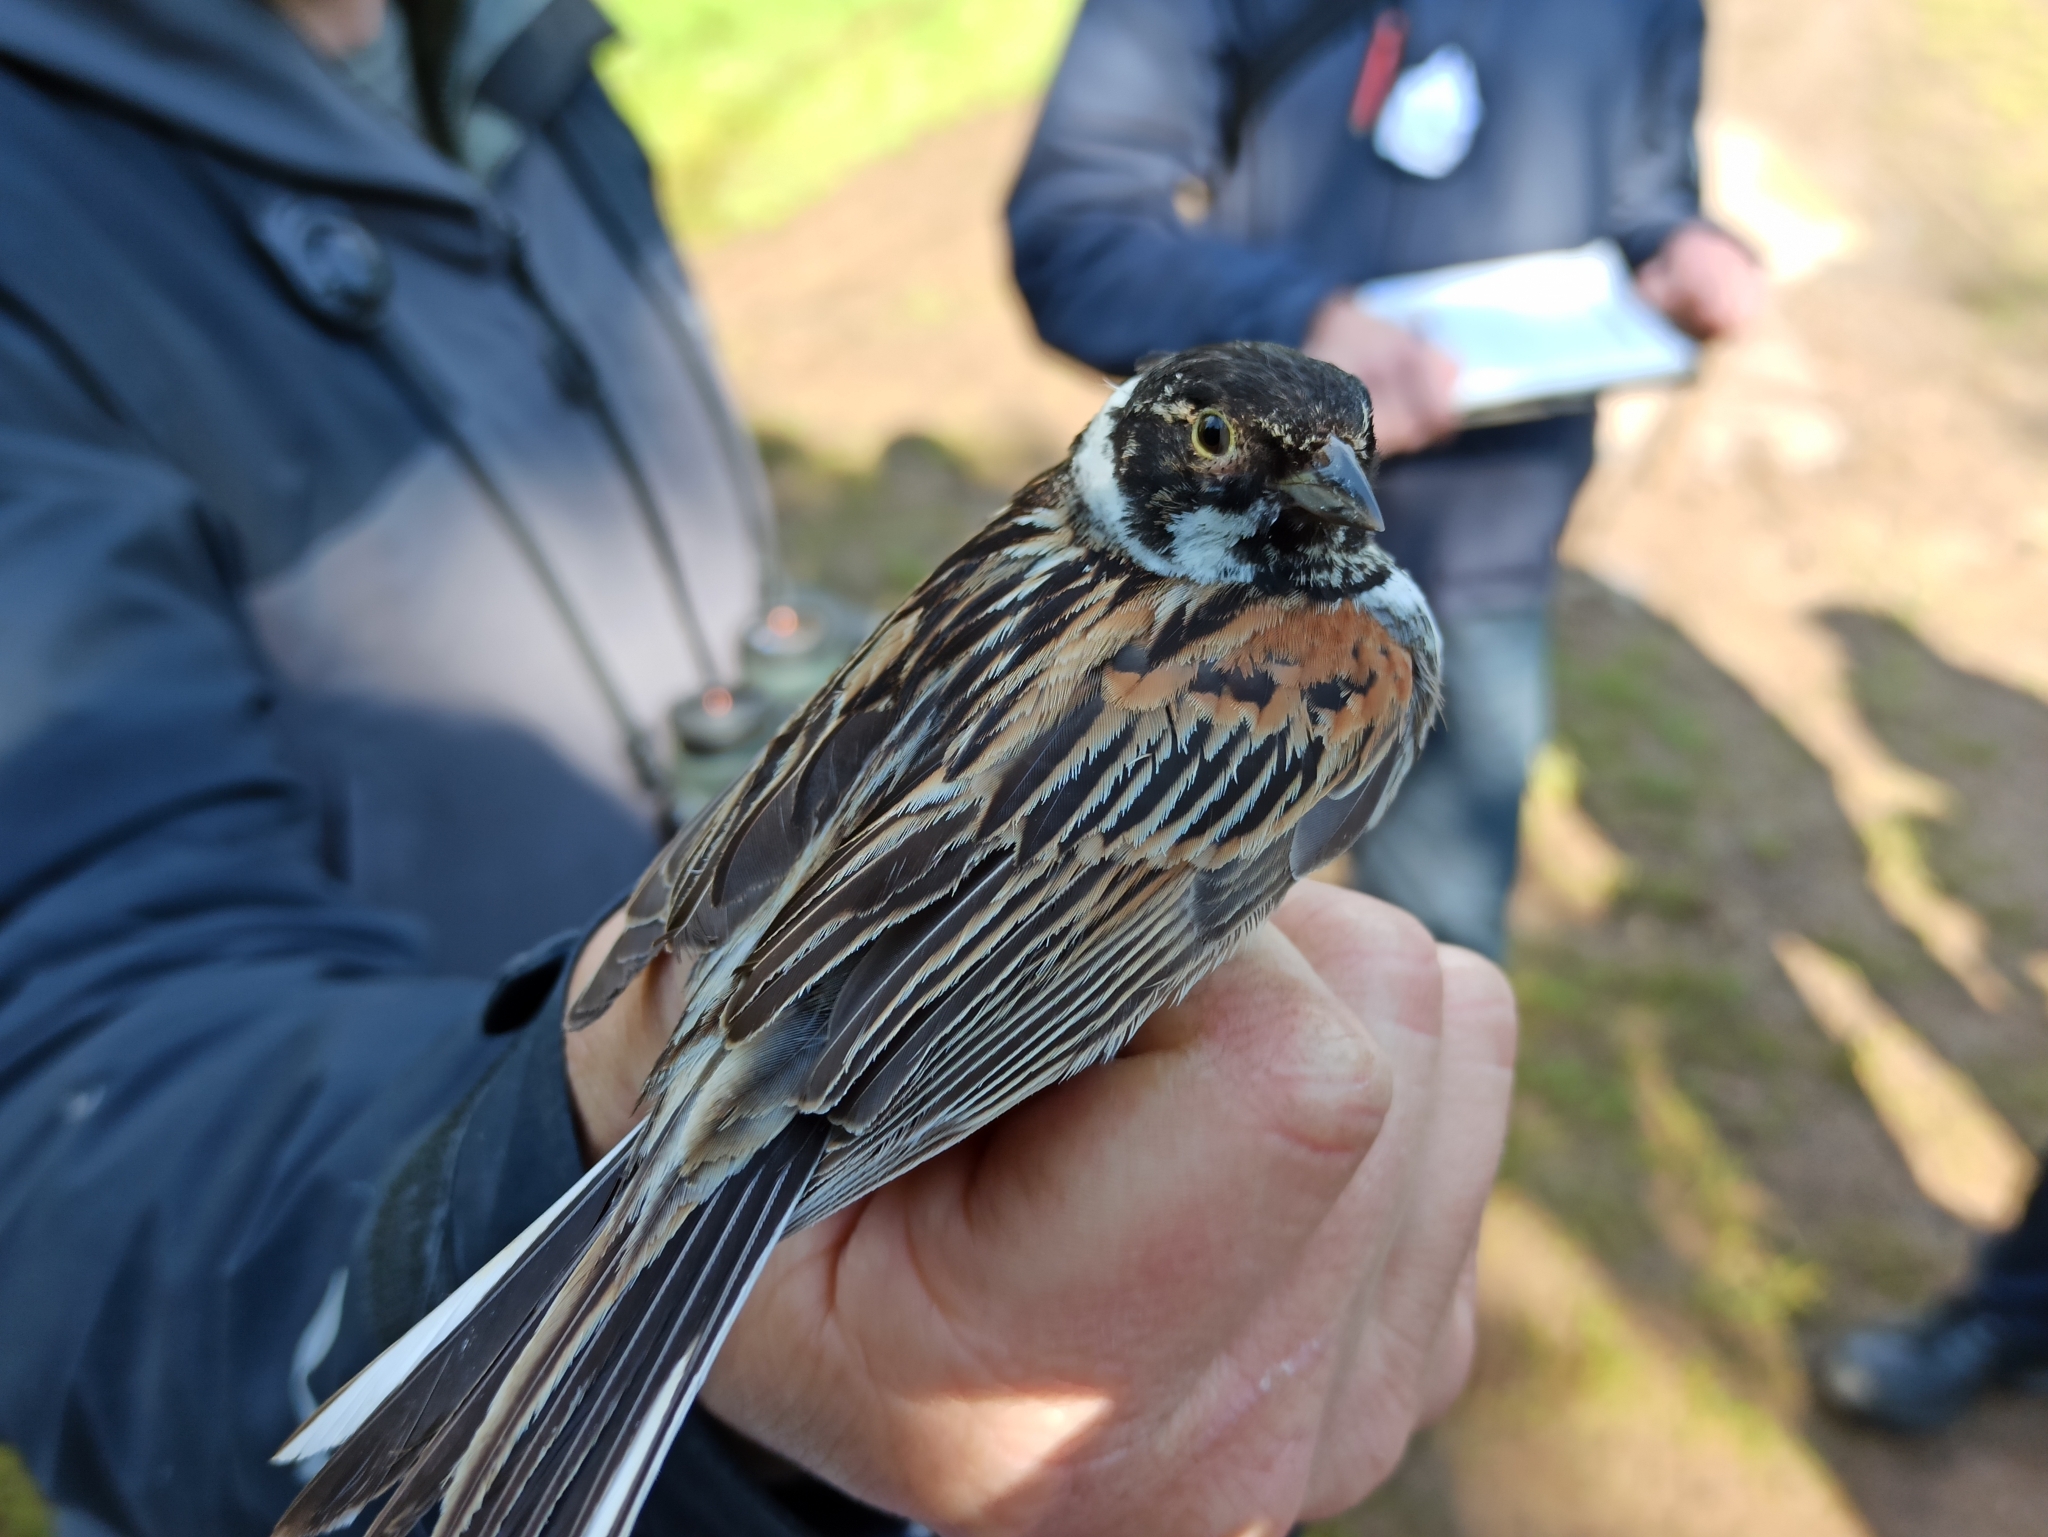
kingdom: Animalia
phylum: Chordata
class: Aves
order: Passeriformes
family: Emberizidae
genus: Emberiza
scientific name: Emberiza schoeniclus
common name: Reed bunting
